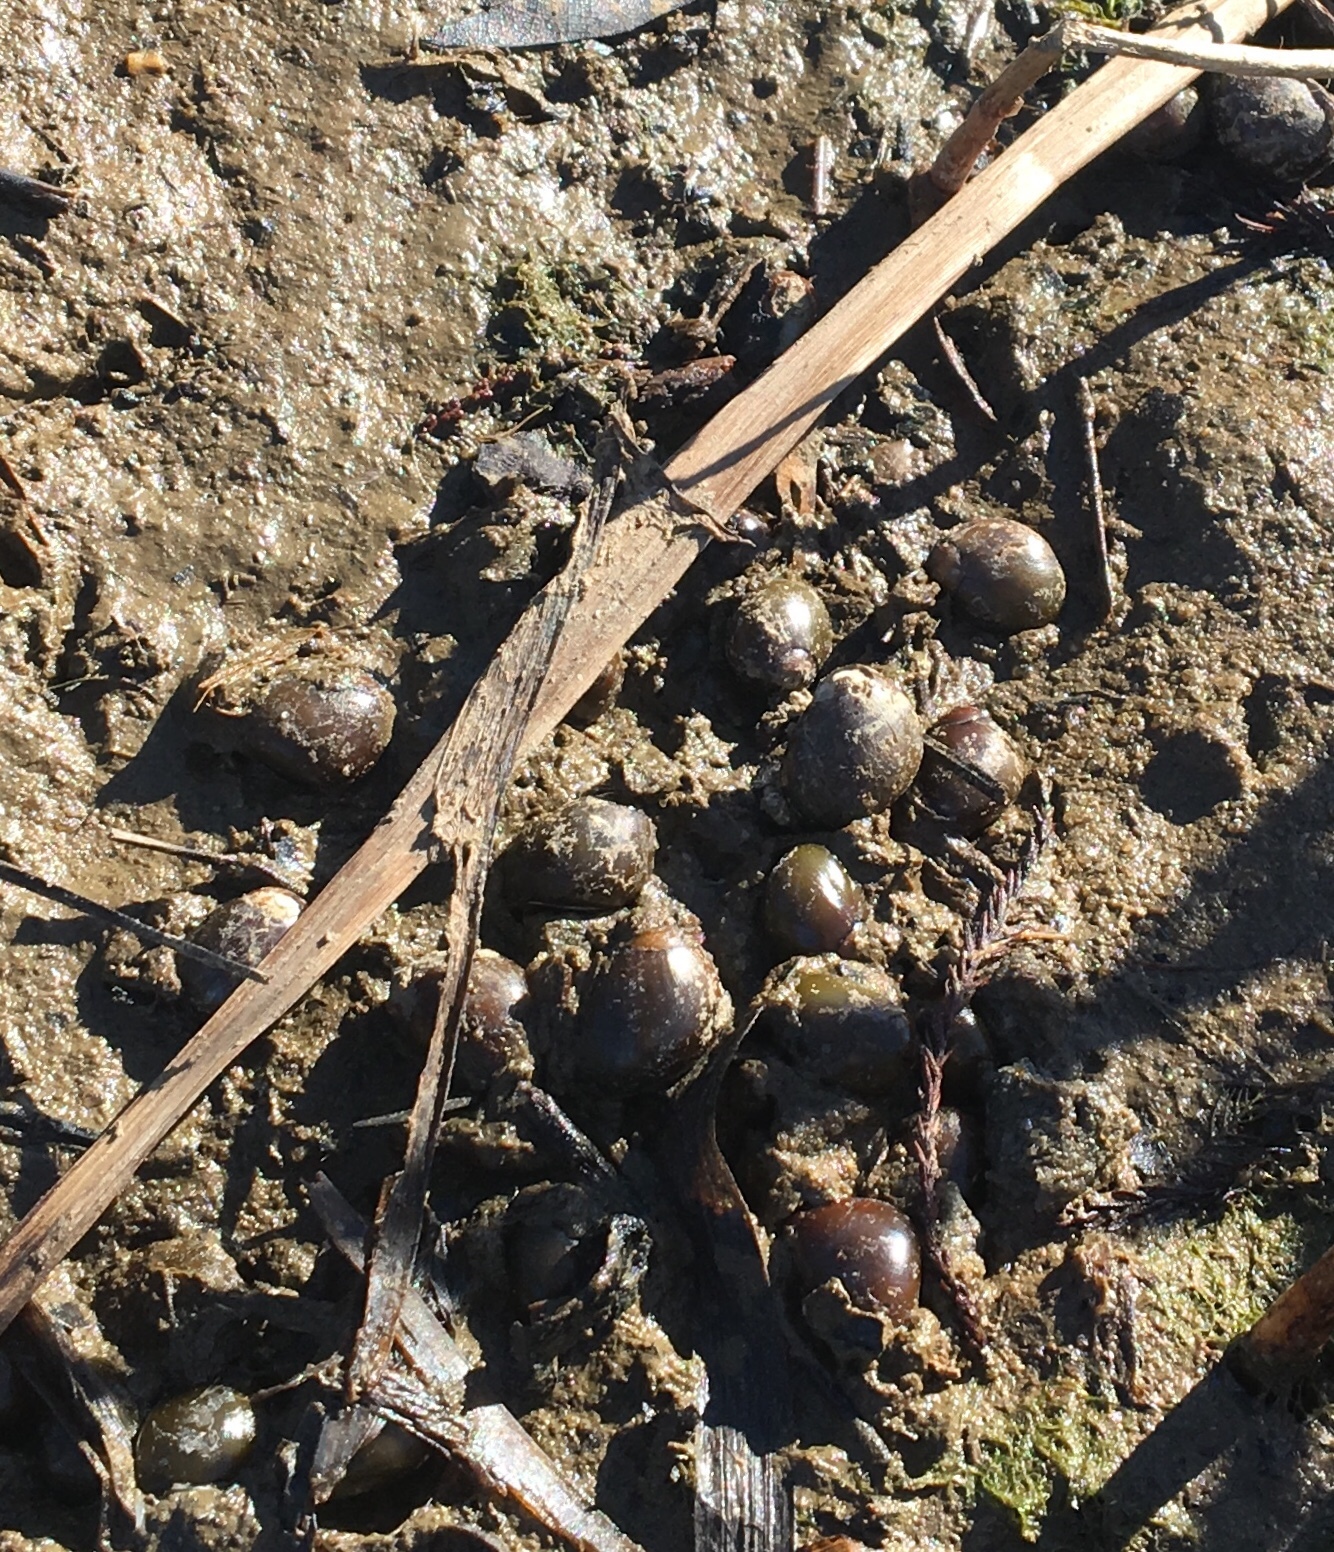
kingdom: Animalia
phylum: Mollusca
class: Gastropoda
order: Cycloneritida
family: Neritidae
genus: Vitta
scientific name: Vitta usnea
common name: Olive nerite
